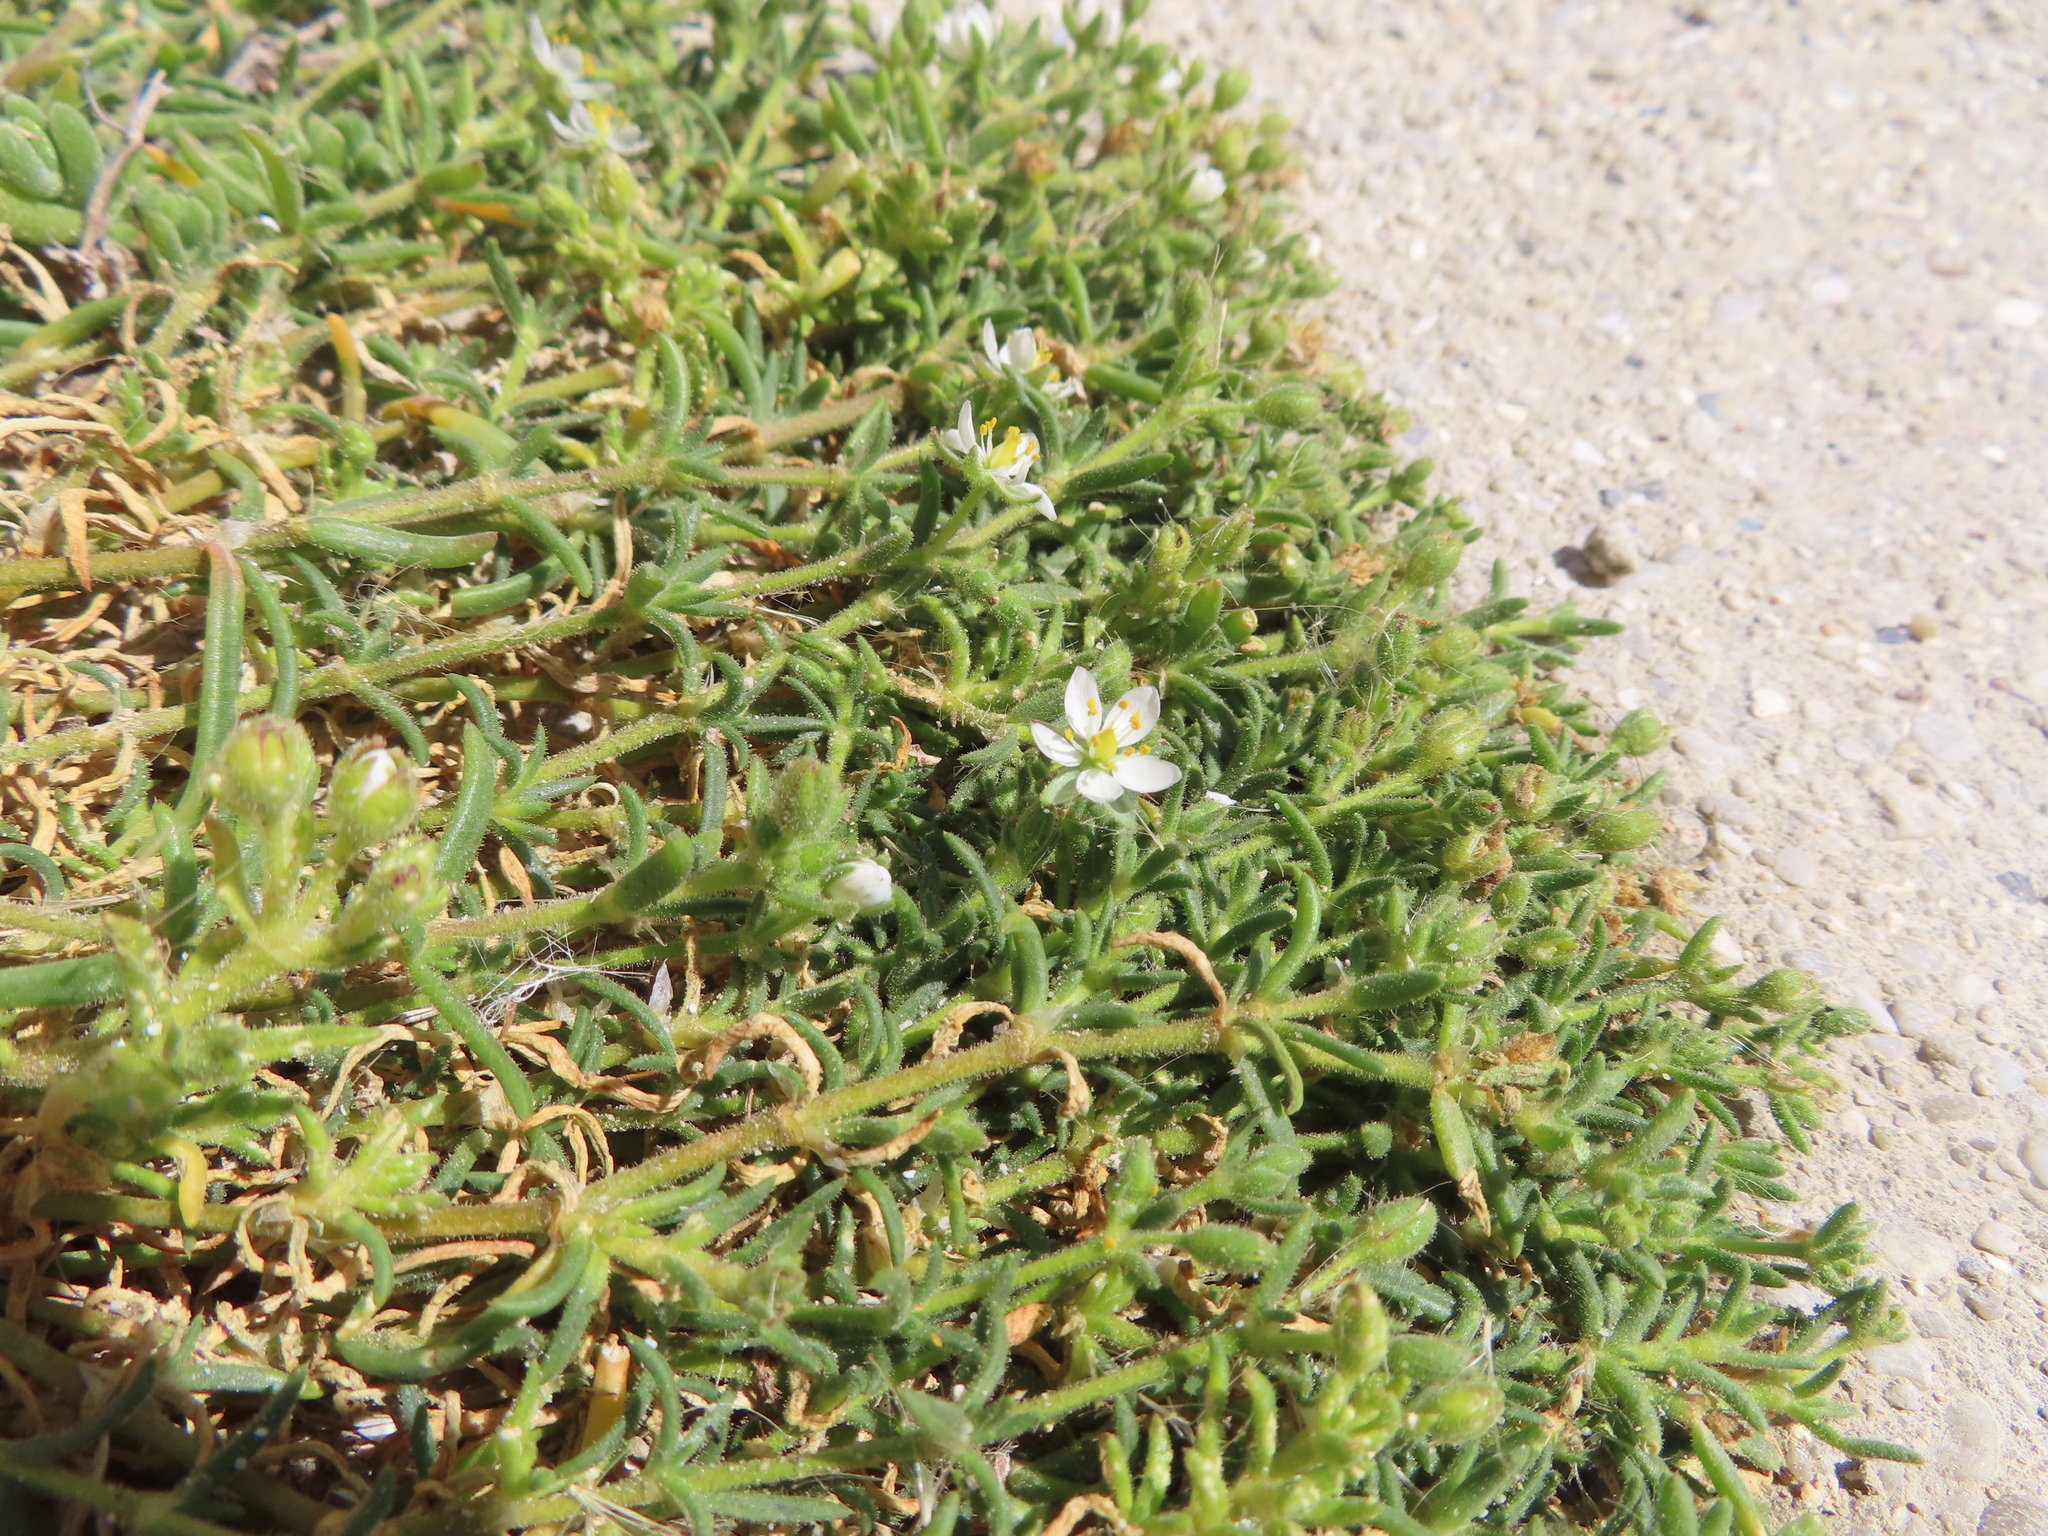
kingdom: Plantae
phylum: Tracheophyta
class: Magnoliopsida
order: Caryophyllales
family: Caryophyllaceae
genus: Spergularia
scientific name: Spergularia media
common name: Greater sea-spurrey
